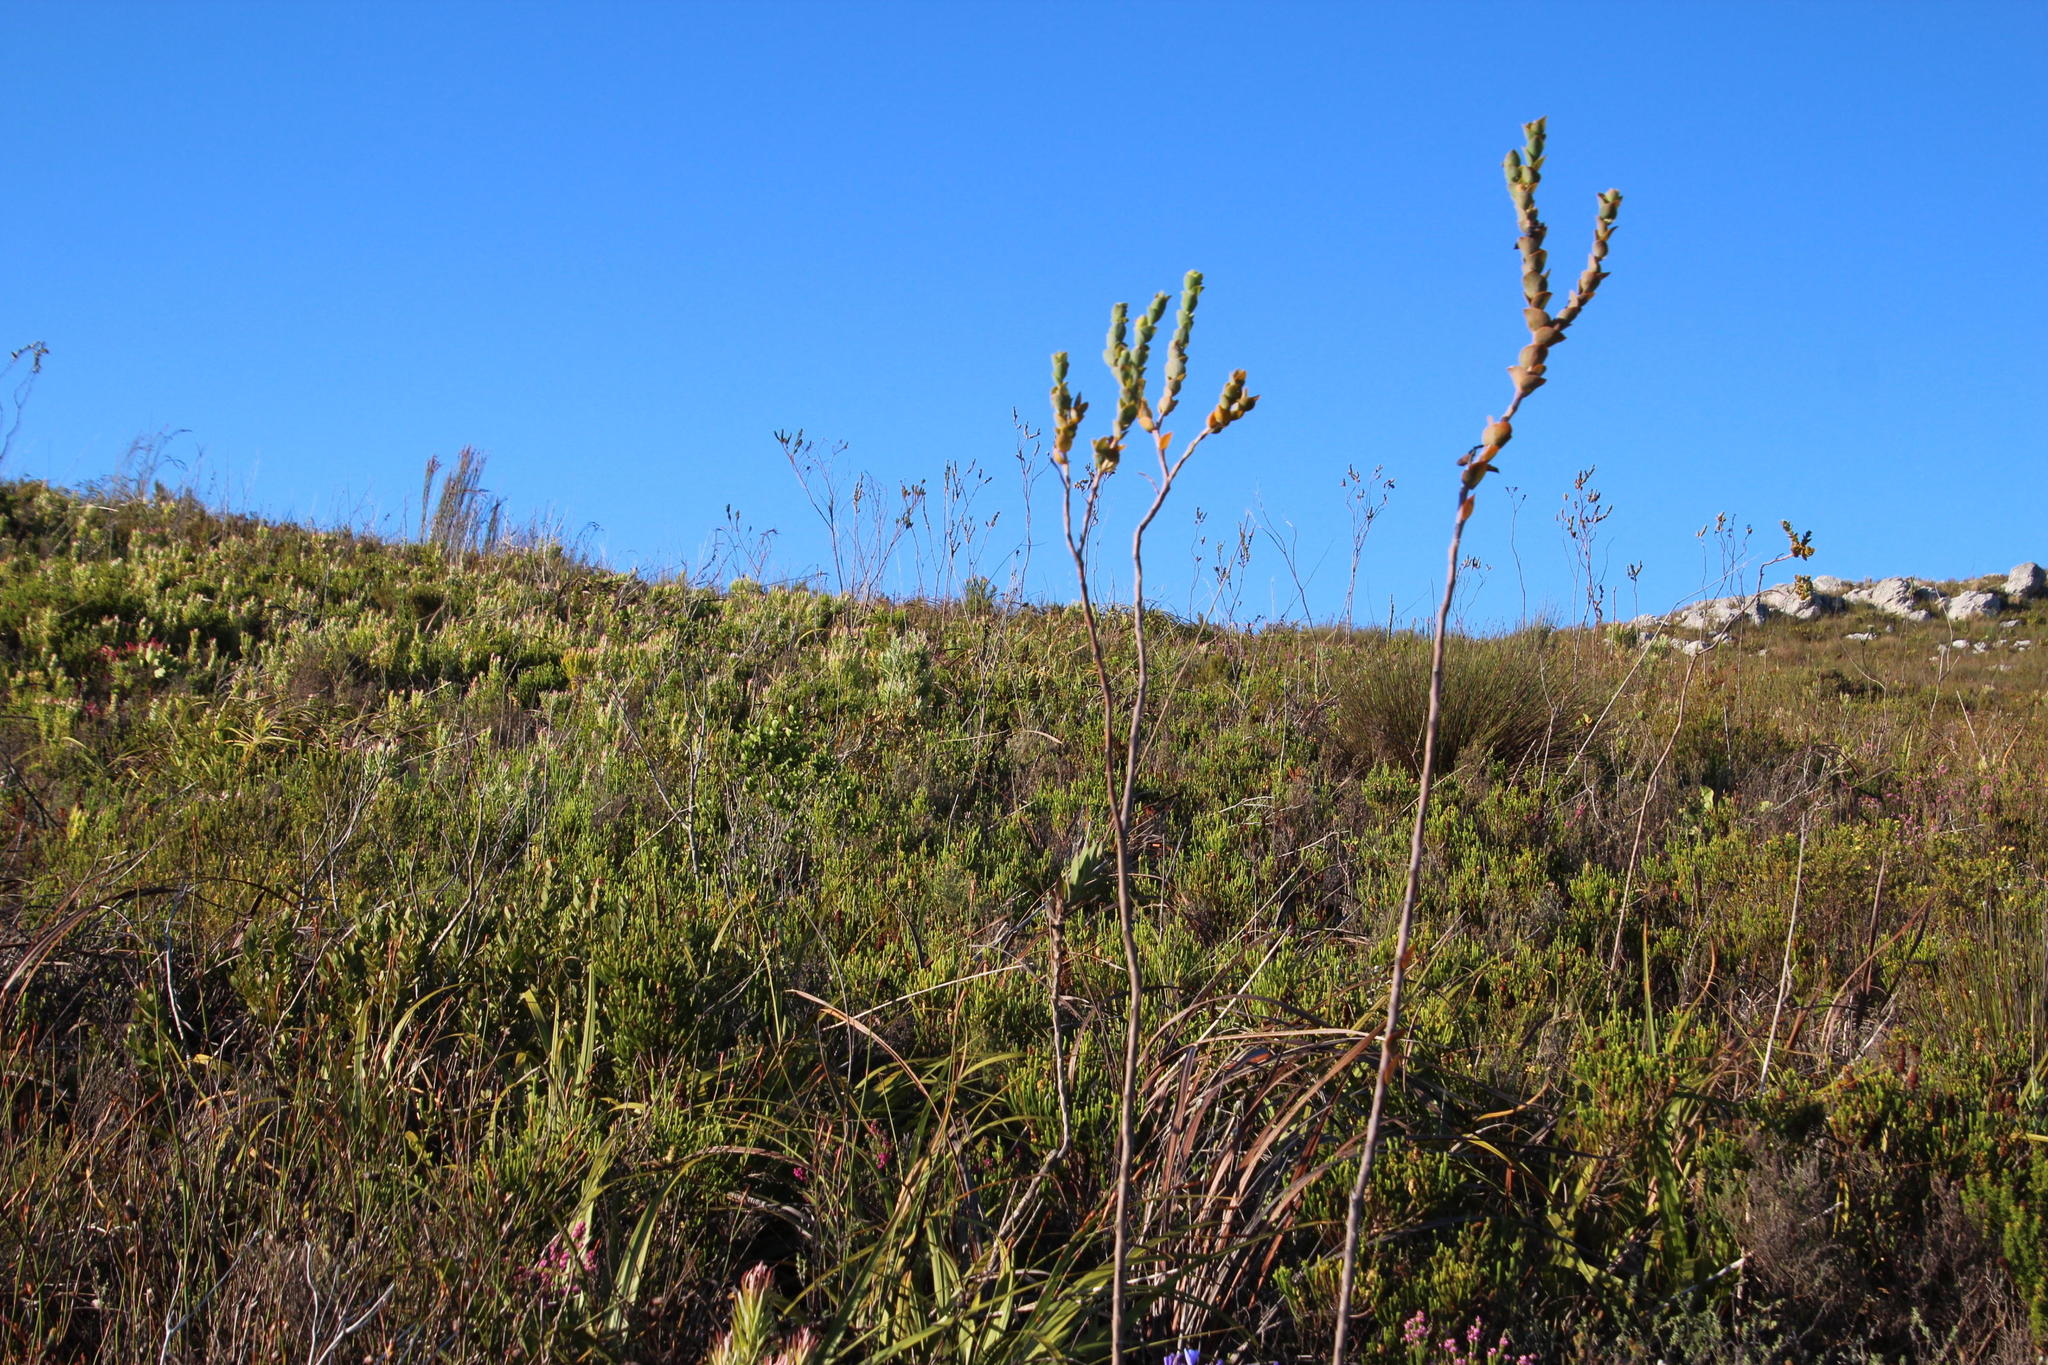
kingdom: Plantae
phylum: Tracheophyta
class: Magnoliopsida
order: Santalales
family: Thesiaceae
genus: Thesium
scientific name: Thesium euphorbioides
